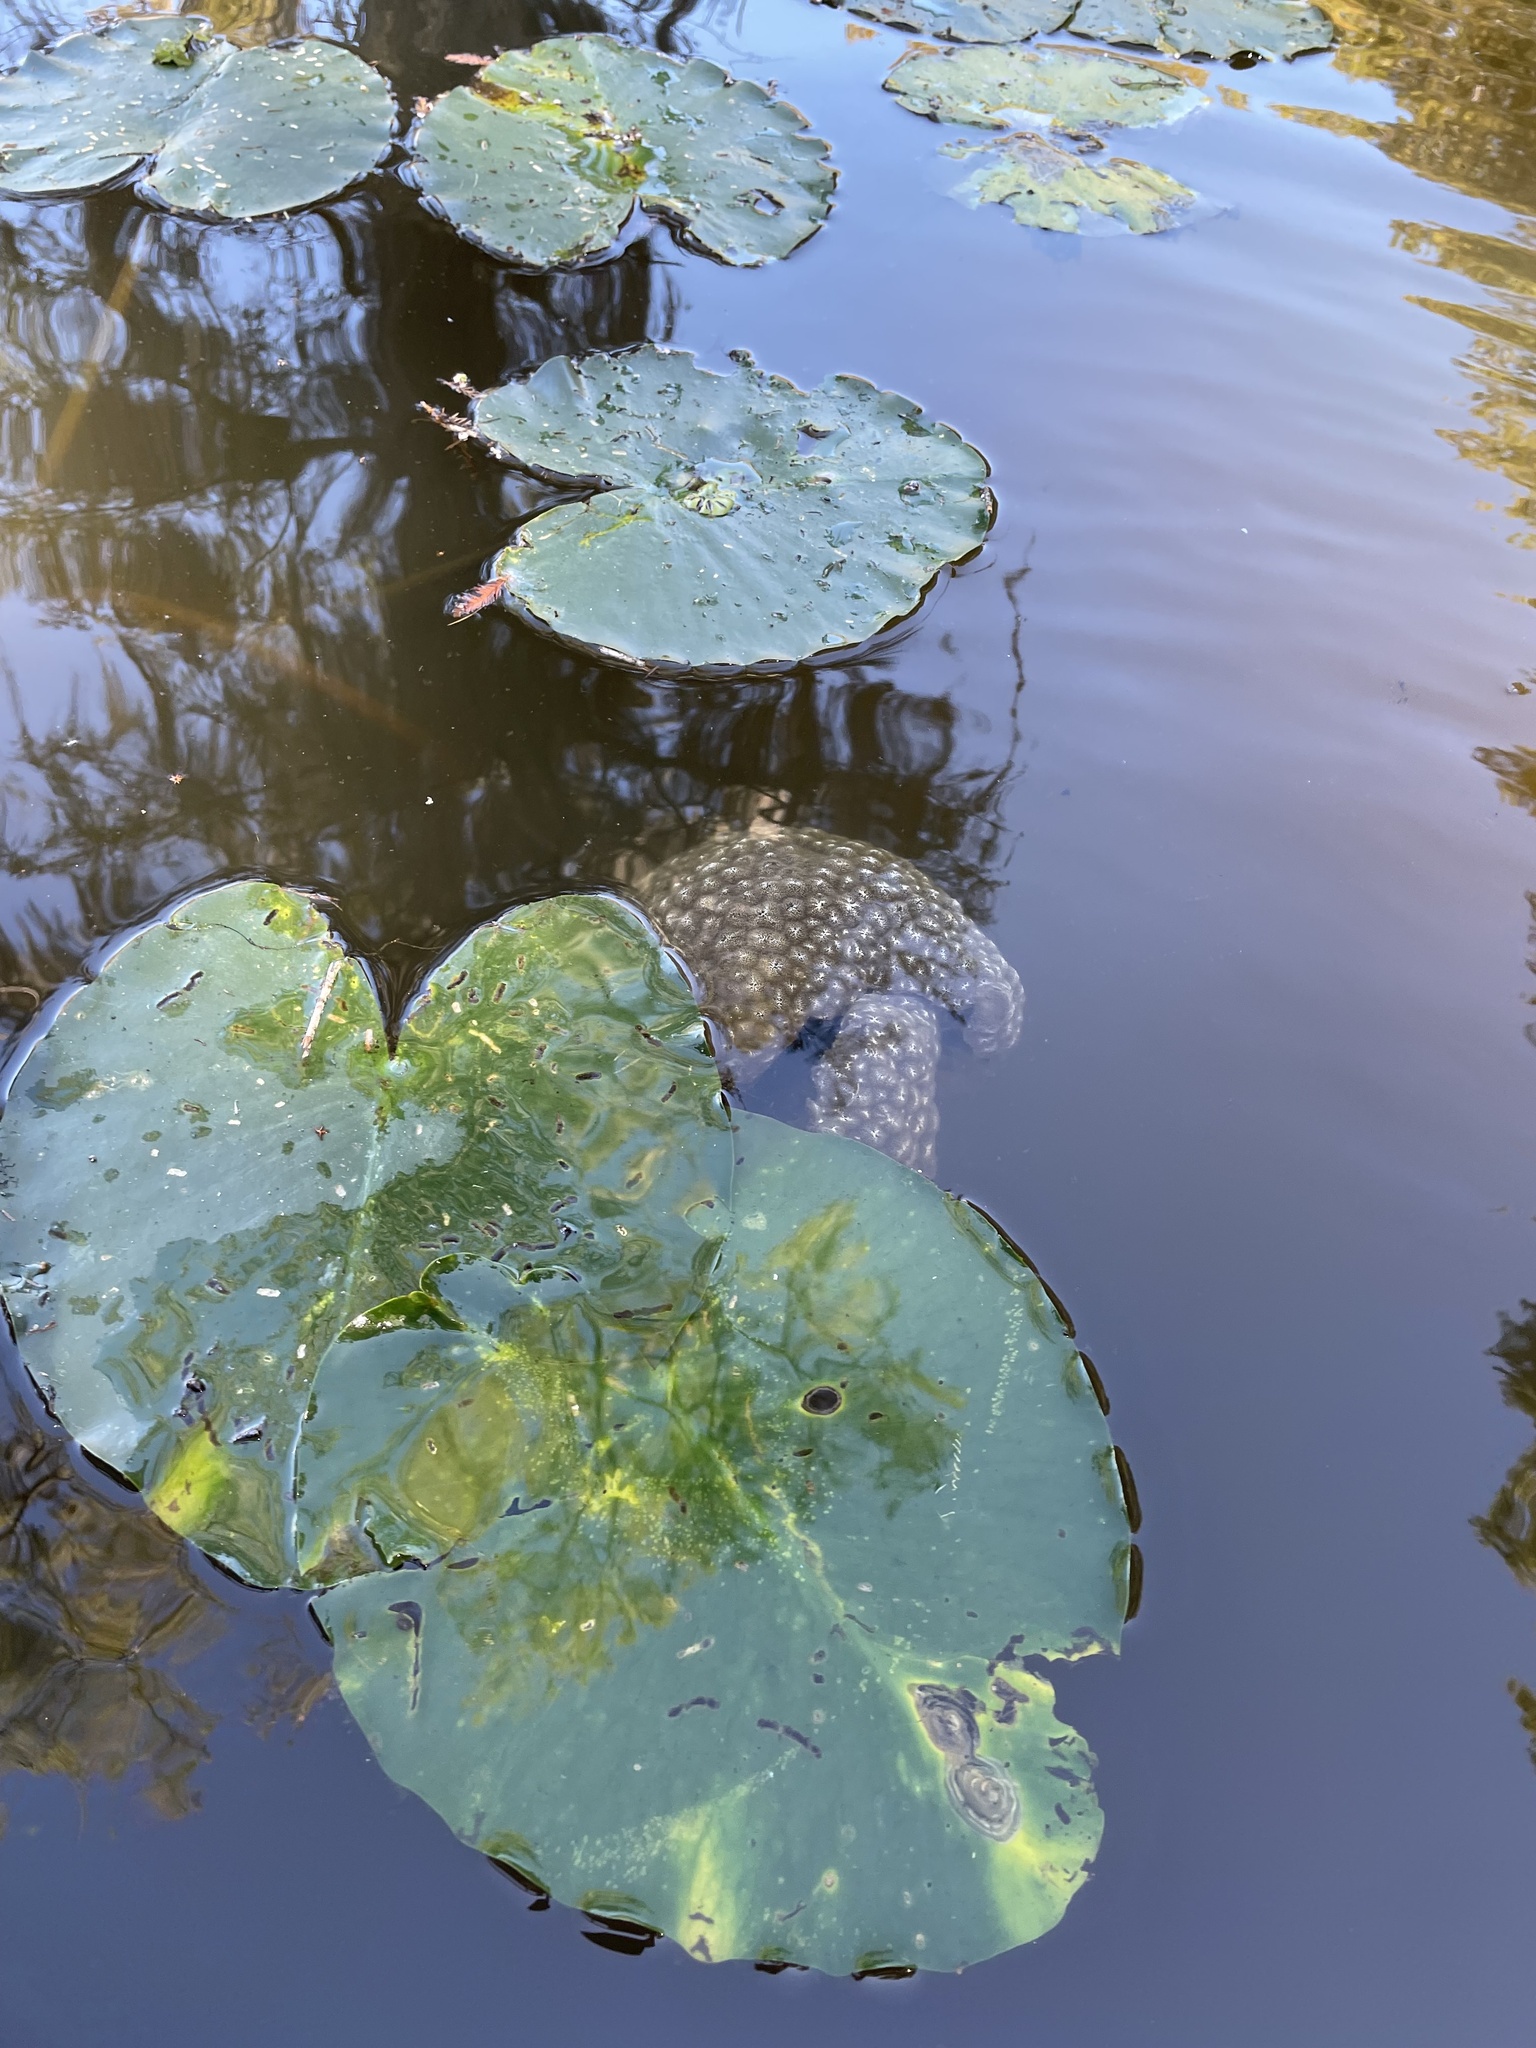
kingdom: Animalia
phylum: Bryozoa
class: Phylactolaemata
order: Plumatellida
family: Pectinatellidae
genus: Pectinatella
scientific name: Pectinatella magnifica
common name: Magnificent bryozoan
